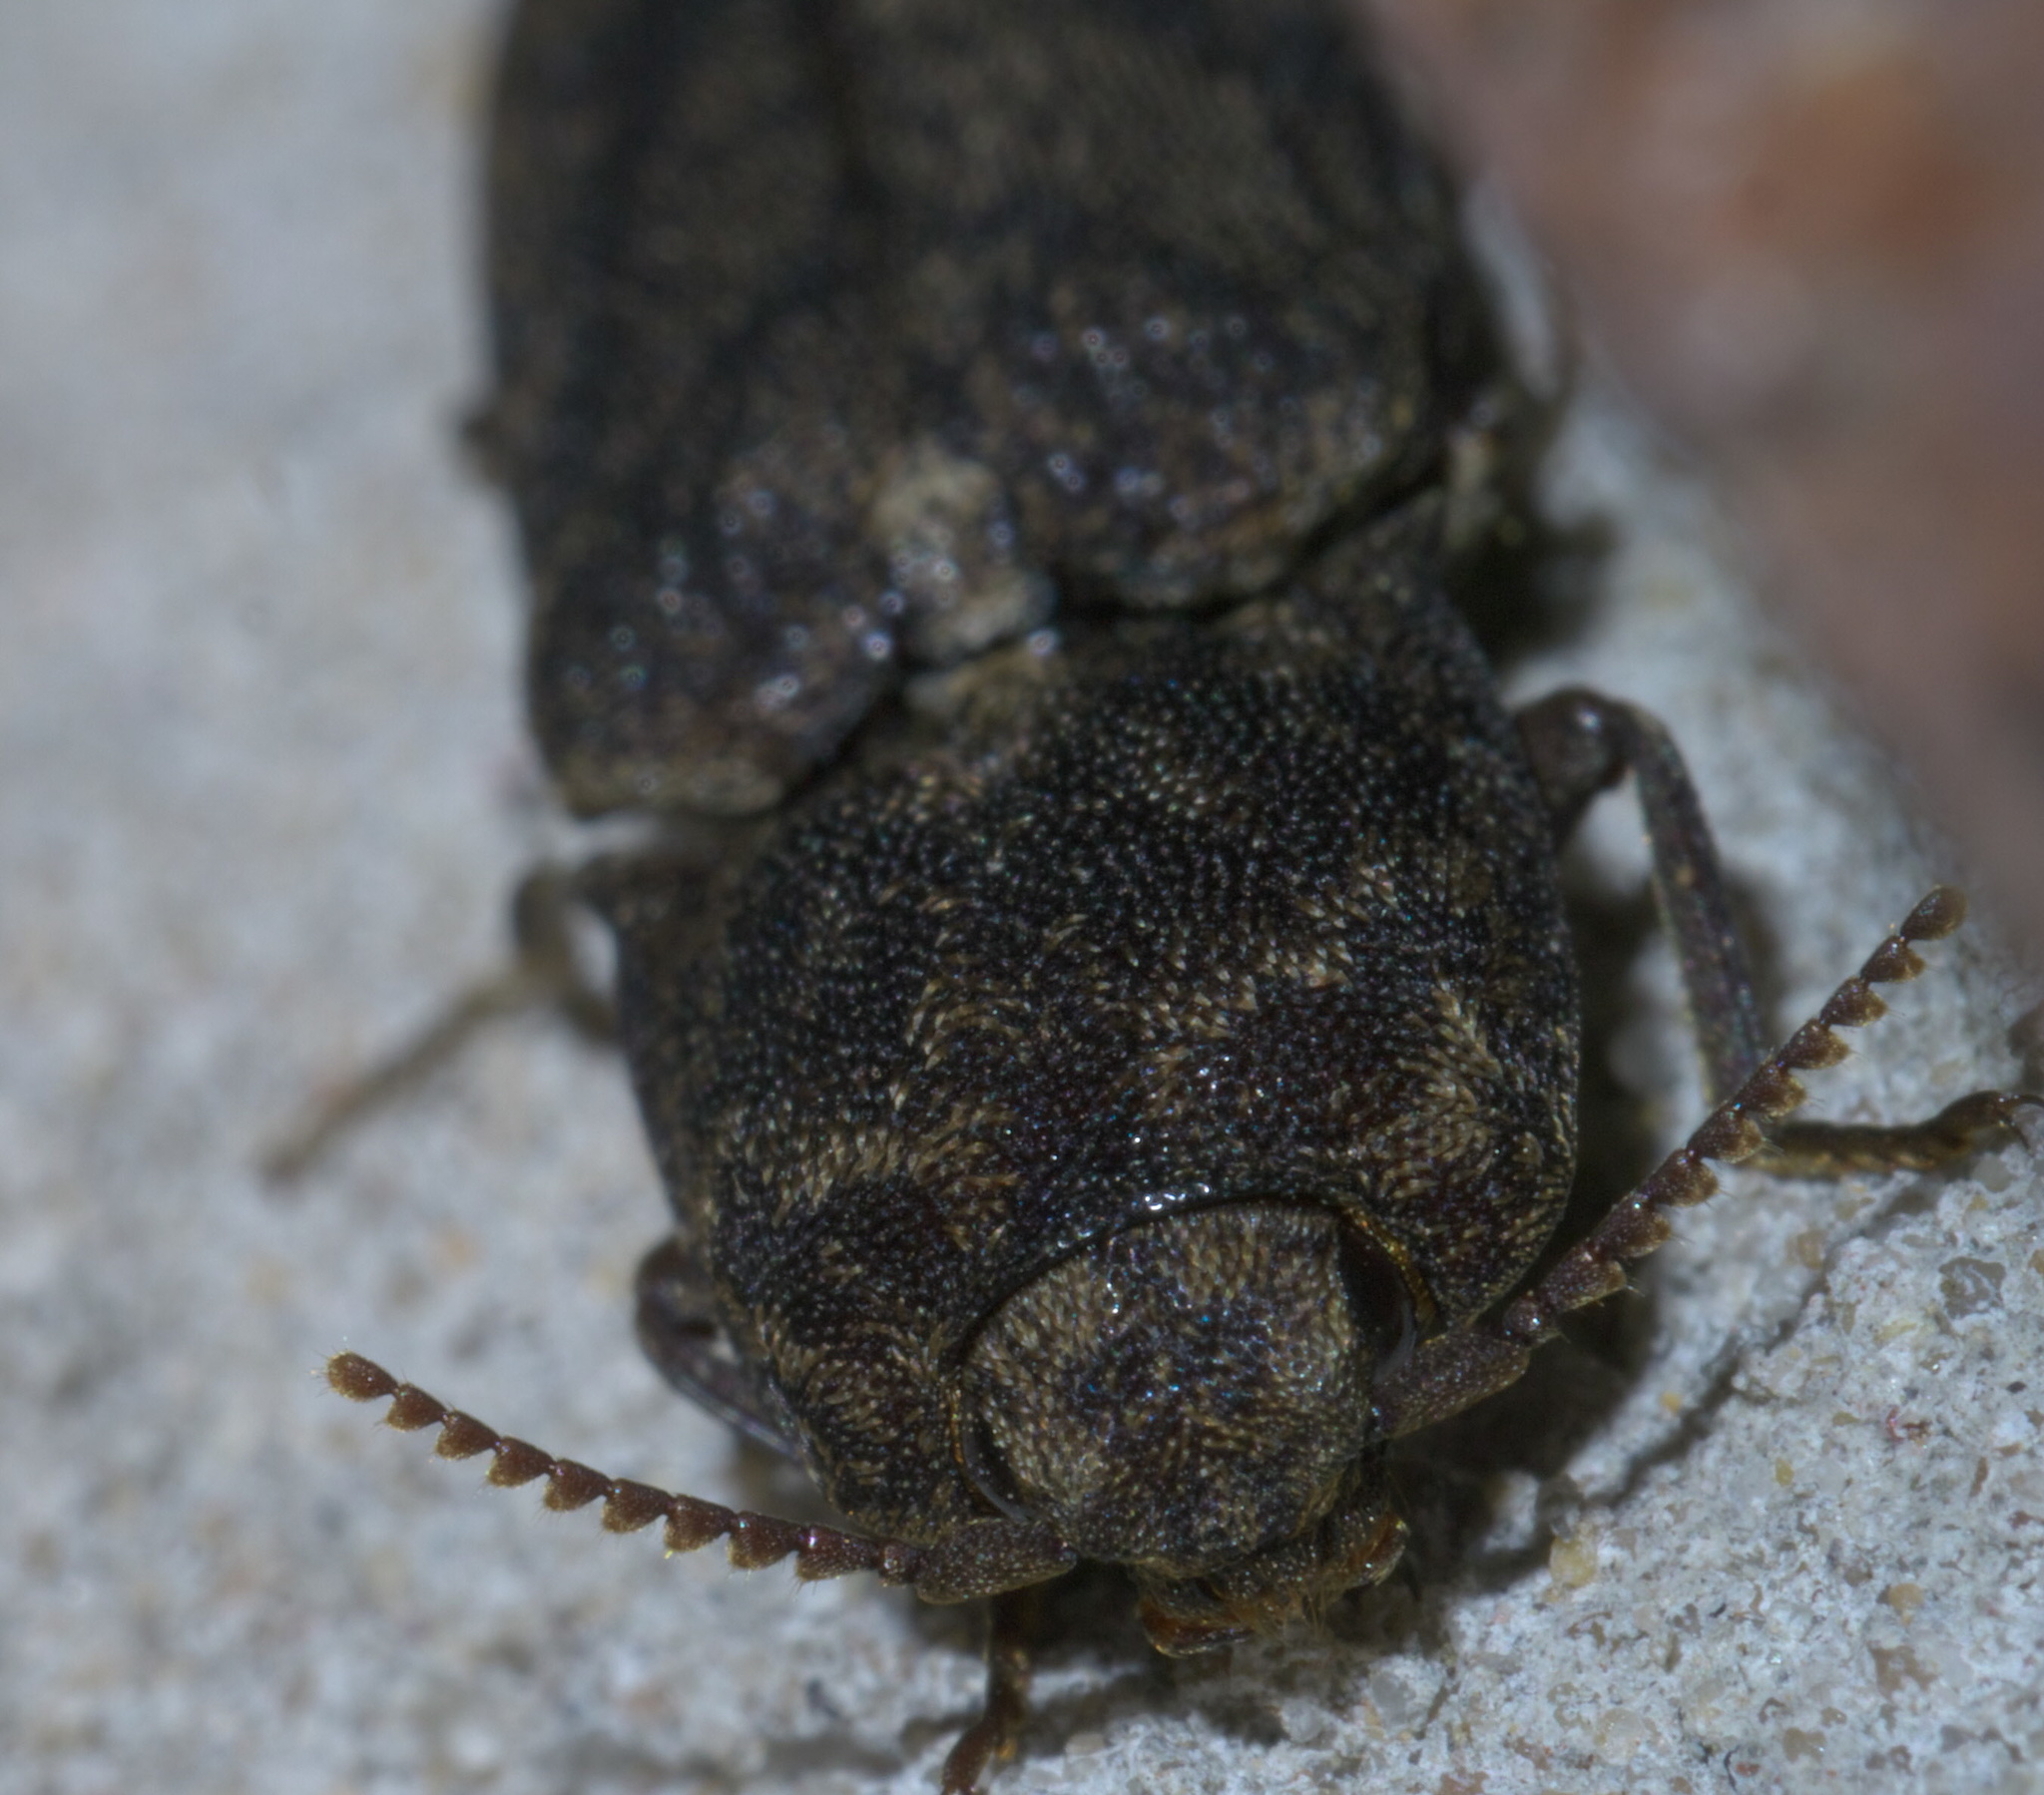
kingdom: Animalia
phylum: Arthropoda
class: Insecta
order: Coleoptera
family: Elateridae
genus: Lacon
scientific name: Lacon marmoratus
